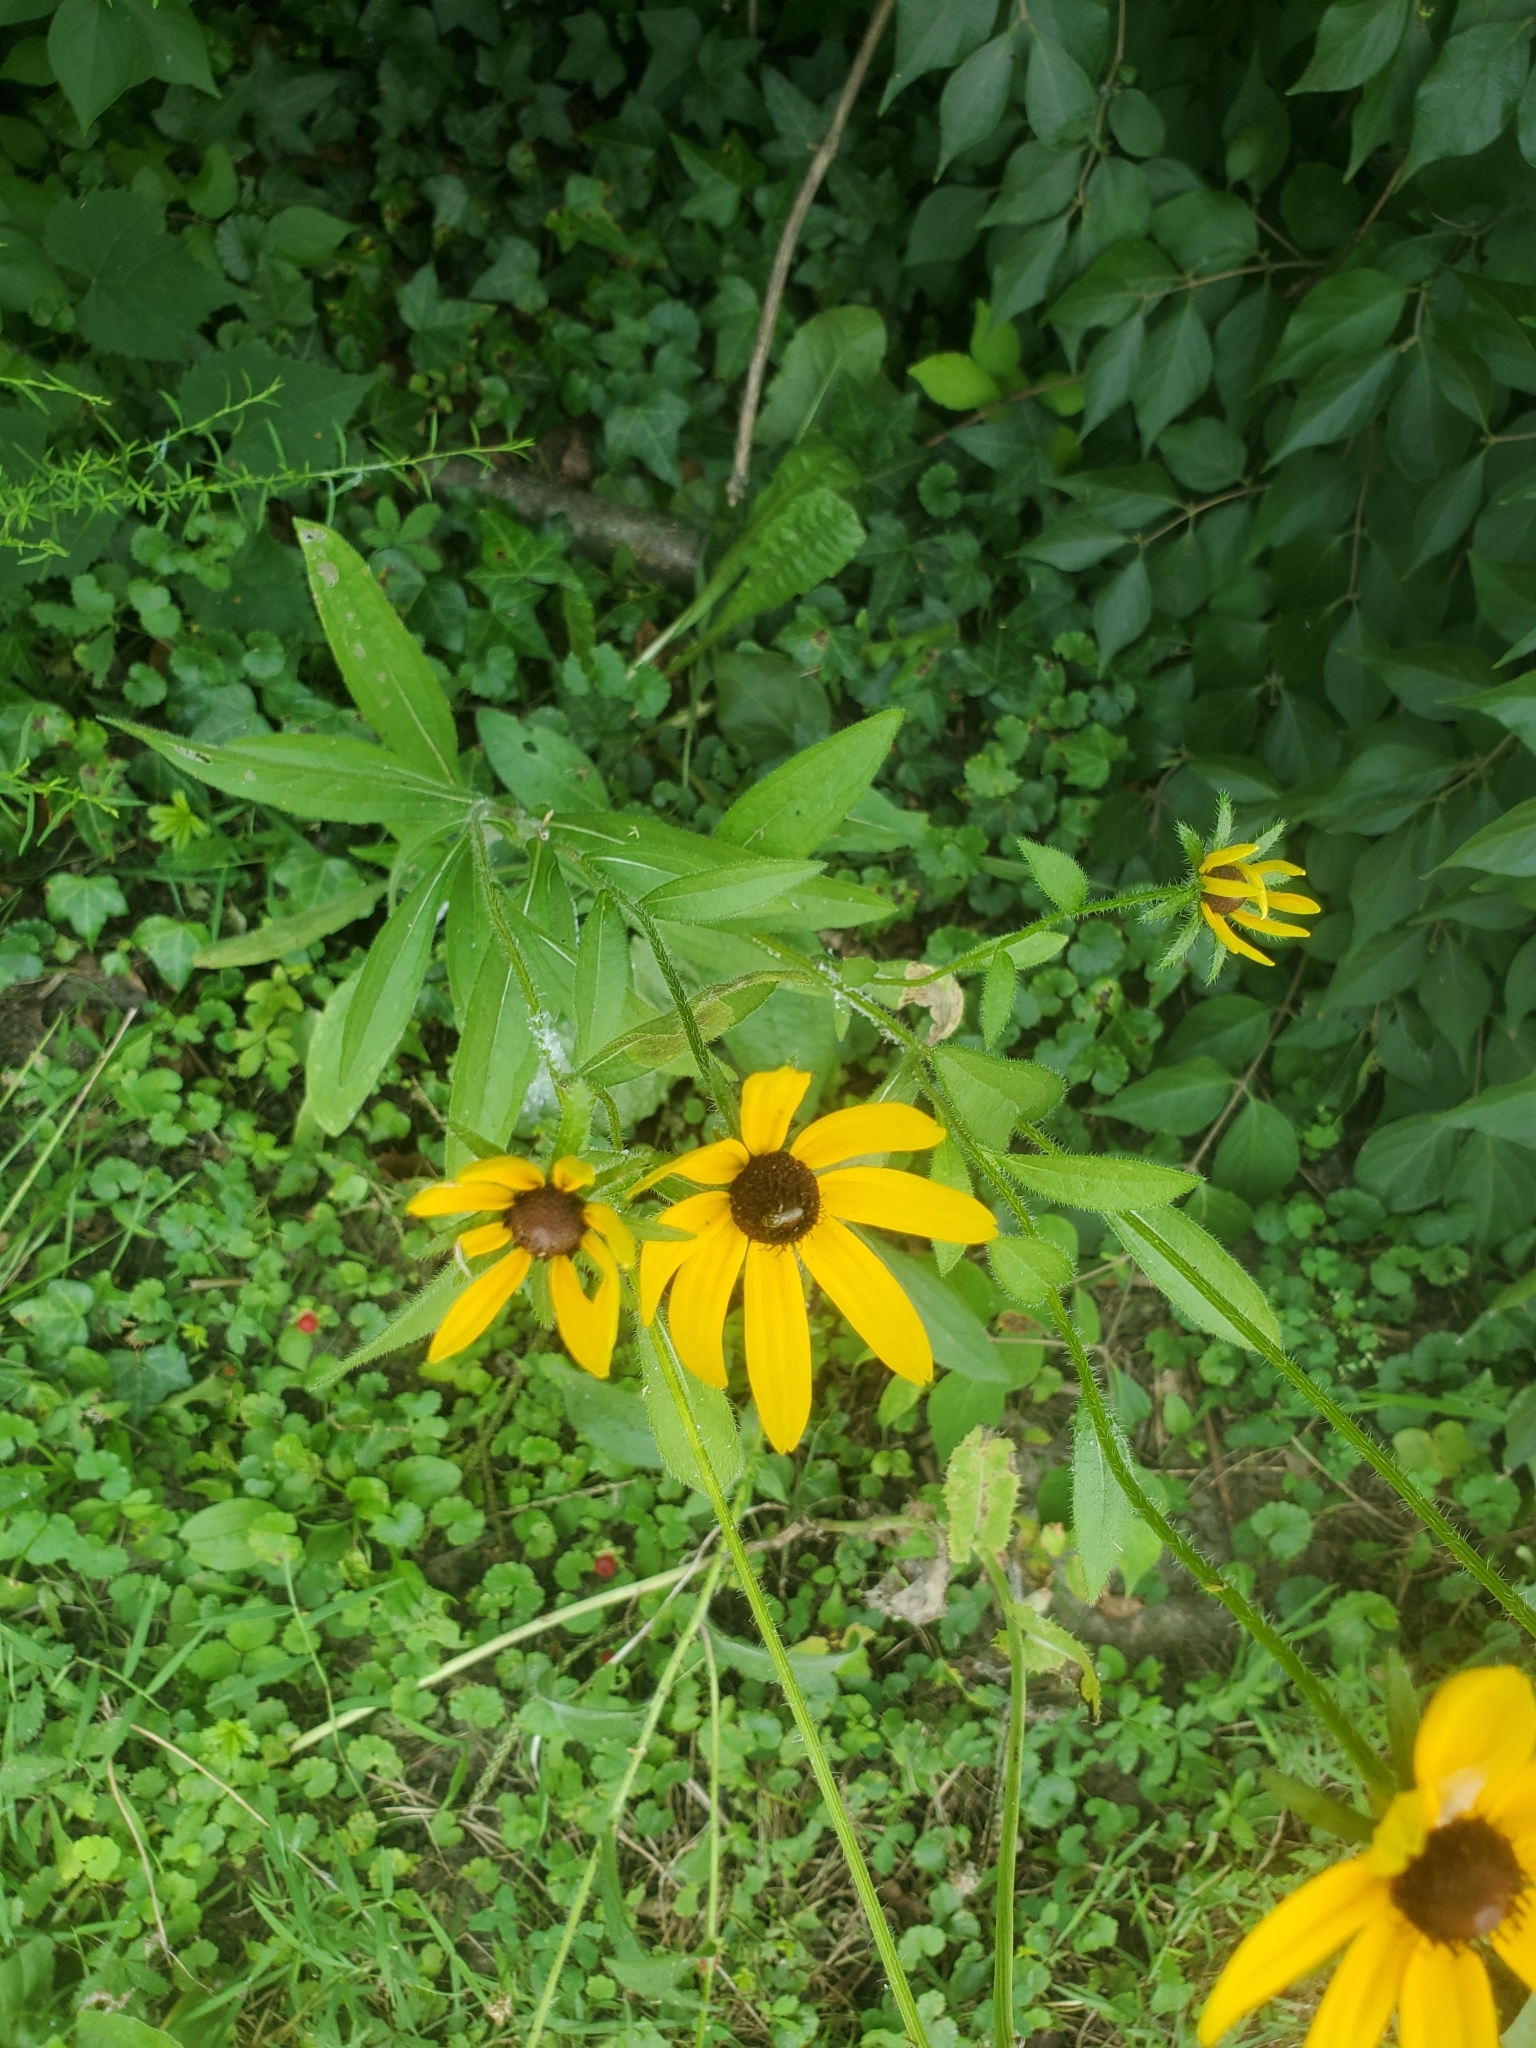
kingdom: Plantae
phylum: Tracheophyta
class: Magnoliopsida
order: Asterales
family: Asteraceae
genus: Rudbeckia
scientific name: Rudbeckia hirta
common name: Black-eyed-susan
